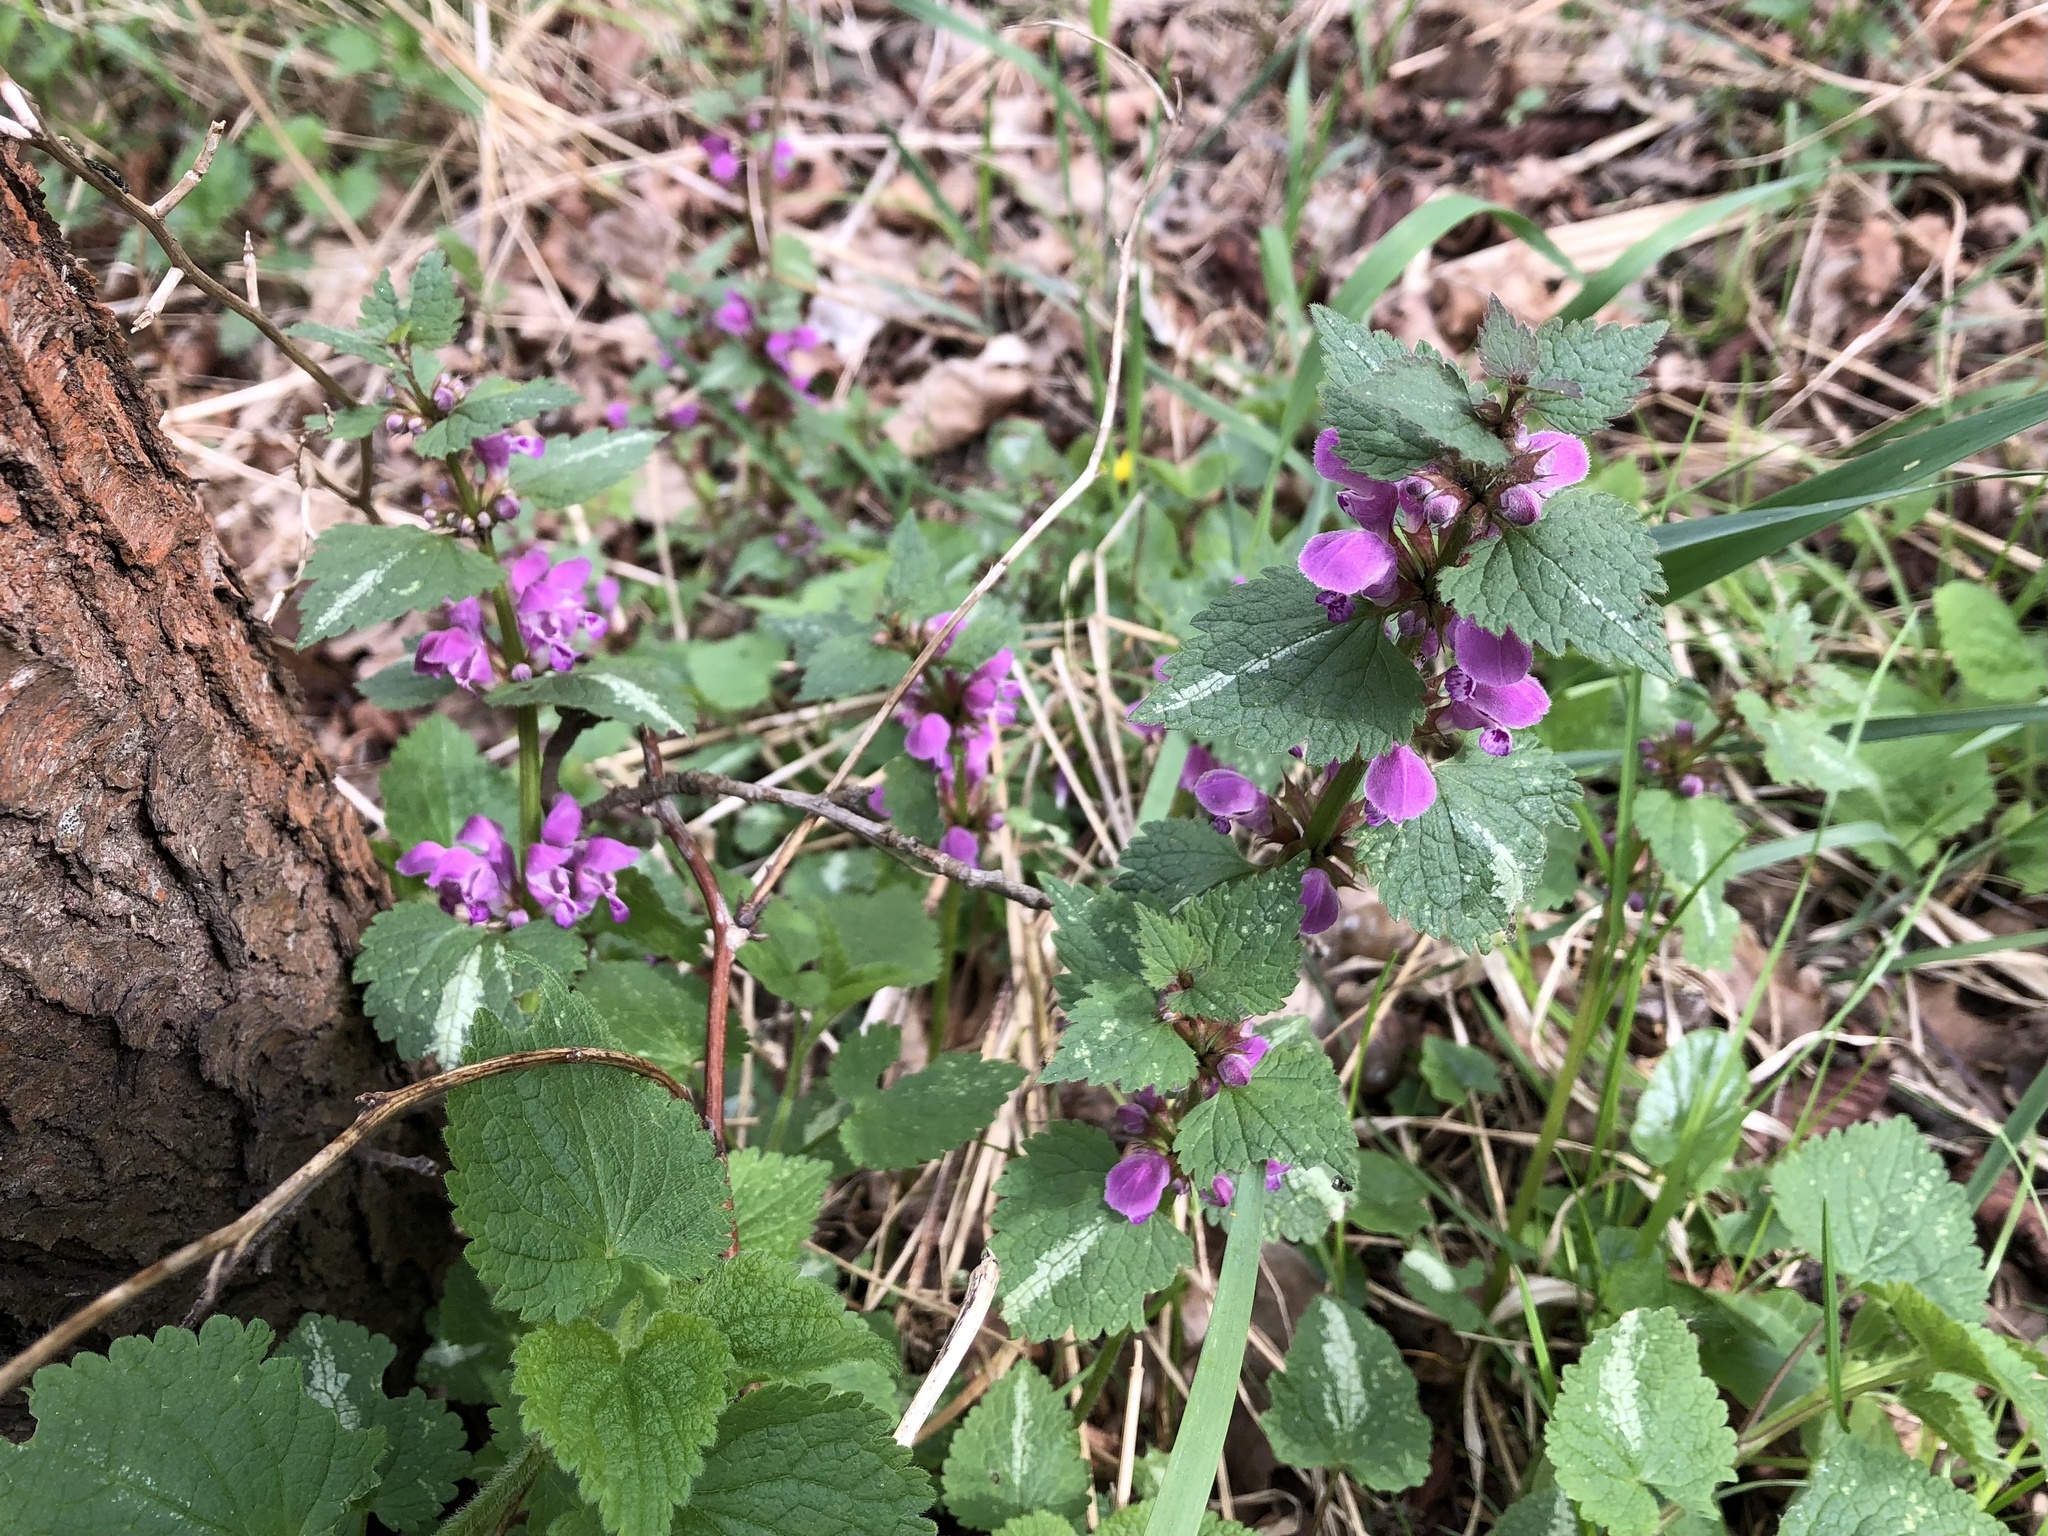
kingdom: Plantae
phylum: Tracheophyta
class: Magnoliopsida
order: Lamiales
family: Lamiaceae
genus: Lamium
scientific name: Lamium maculatum
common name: Spotted dead-nettle
